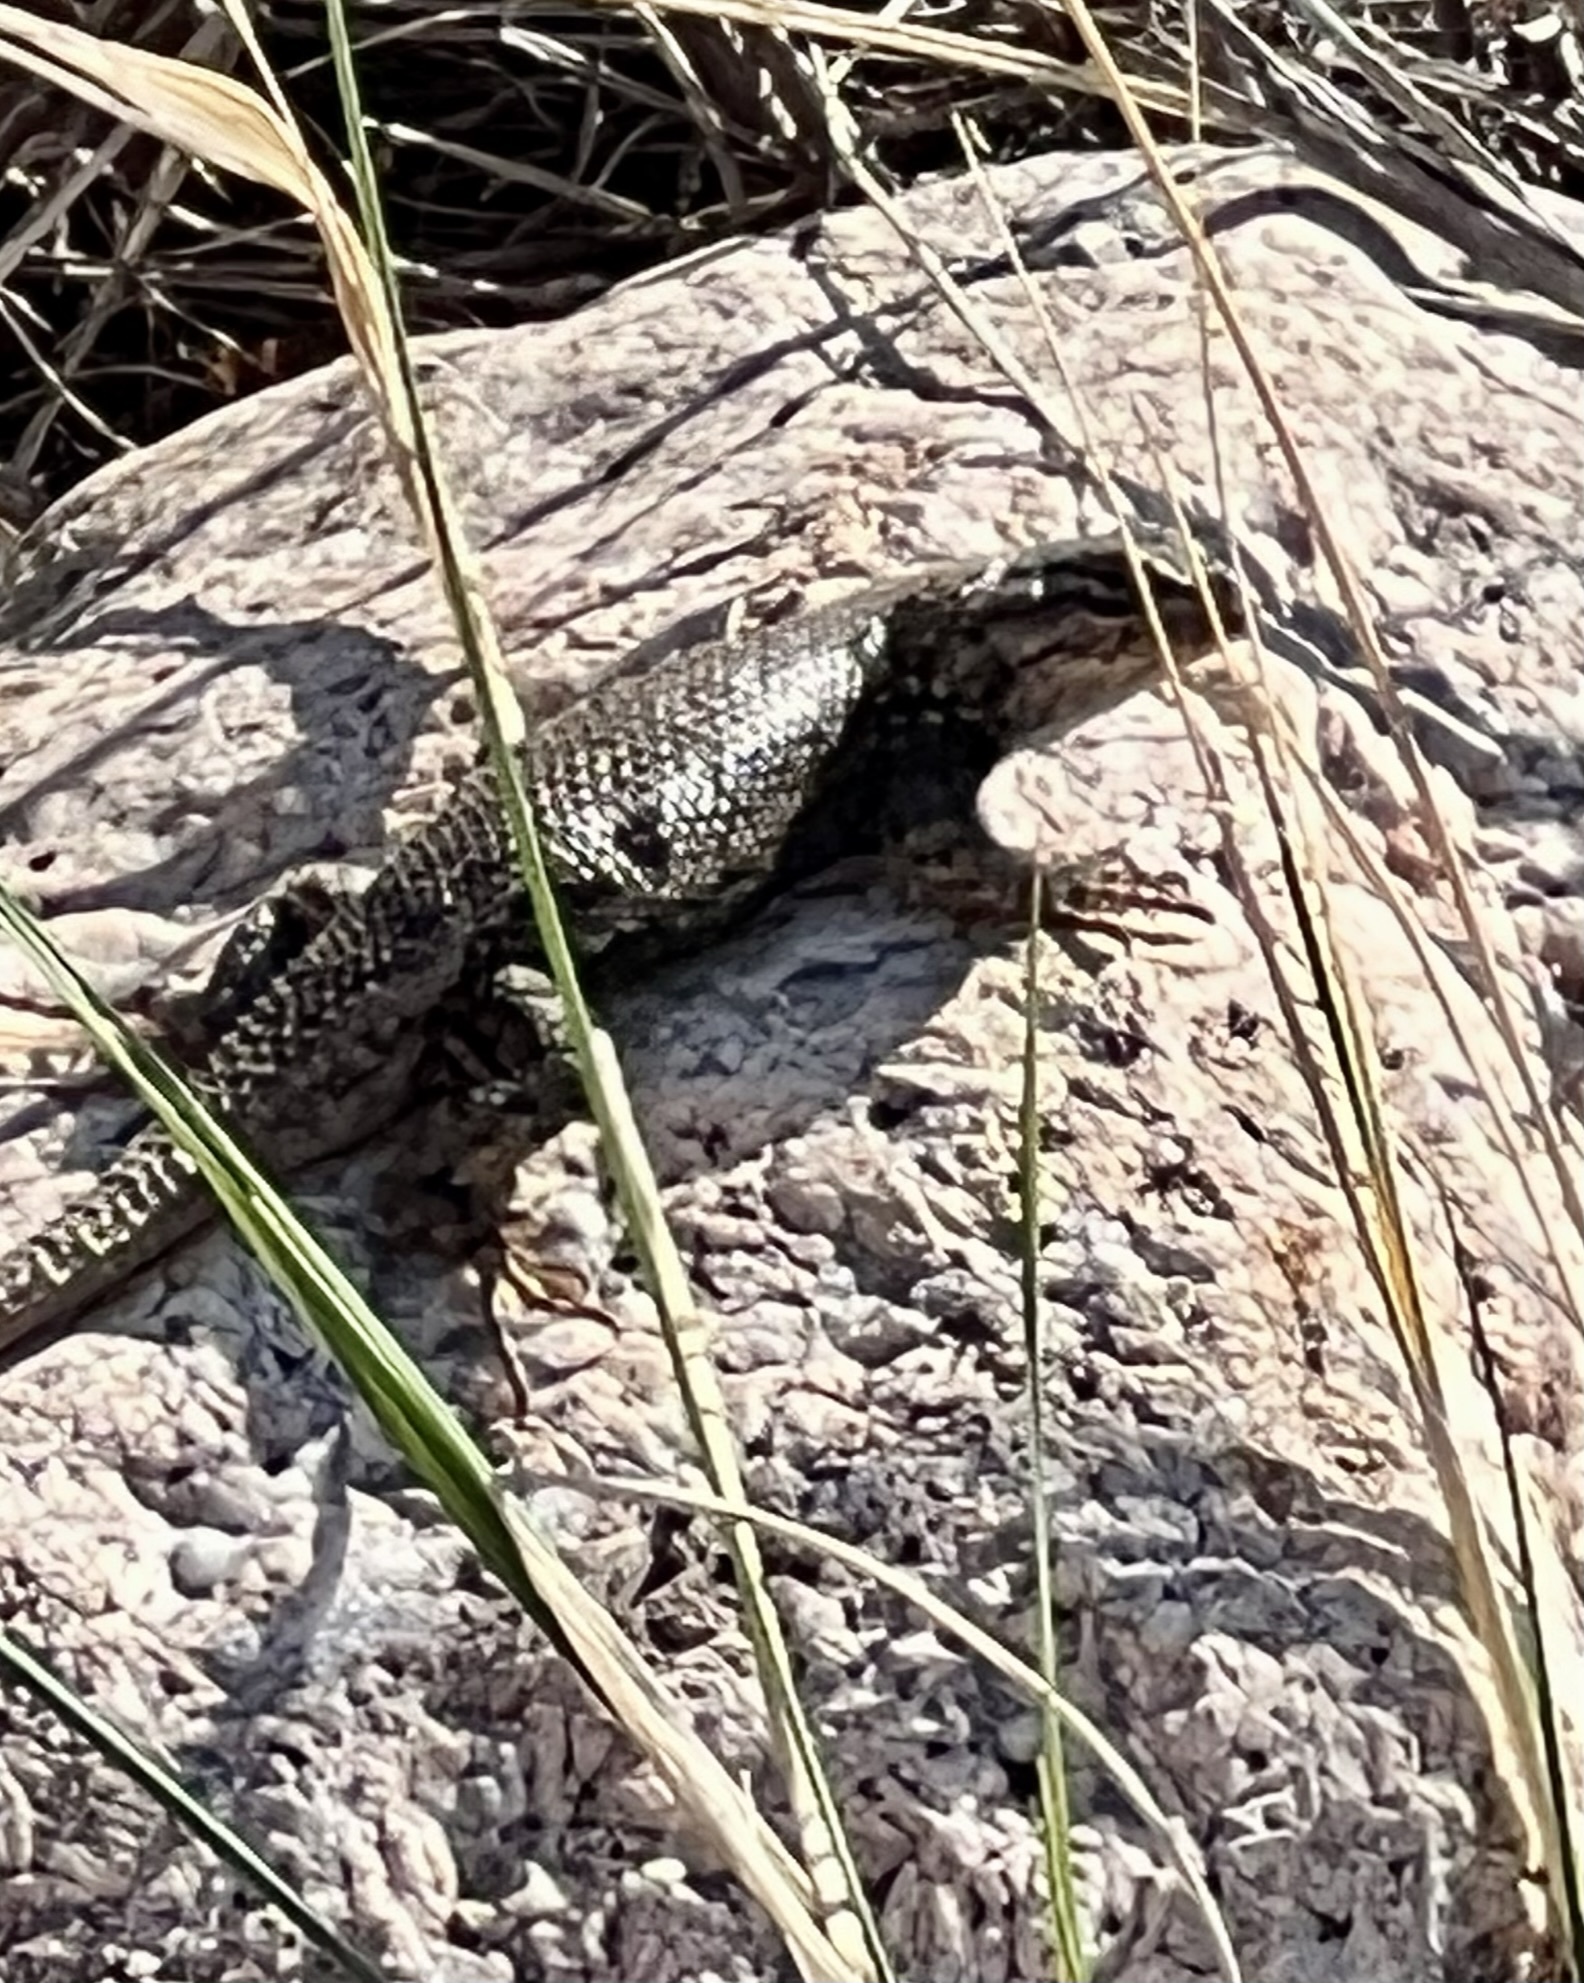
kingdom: Animalia
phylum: Chordata
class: Squamata
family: Phrynosomatidae
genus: Sceloporus
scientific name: Sceloporus consobrinus
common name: Southern prairie lizard
